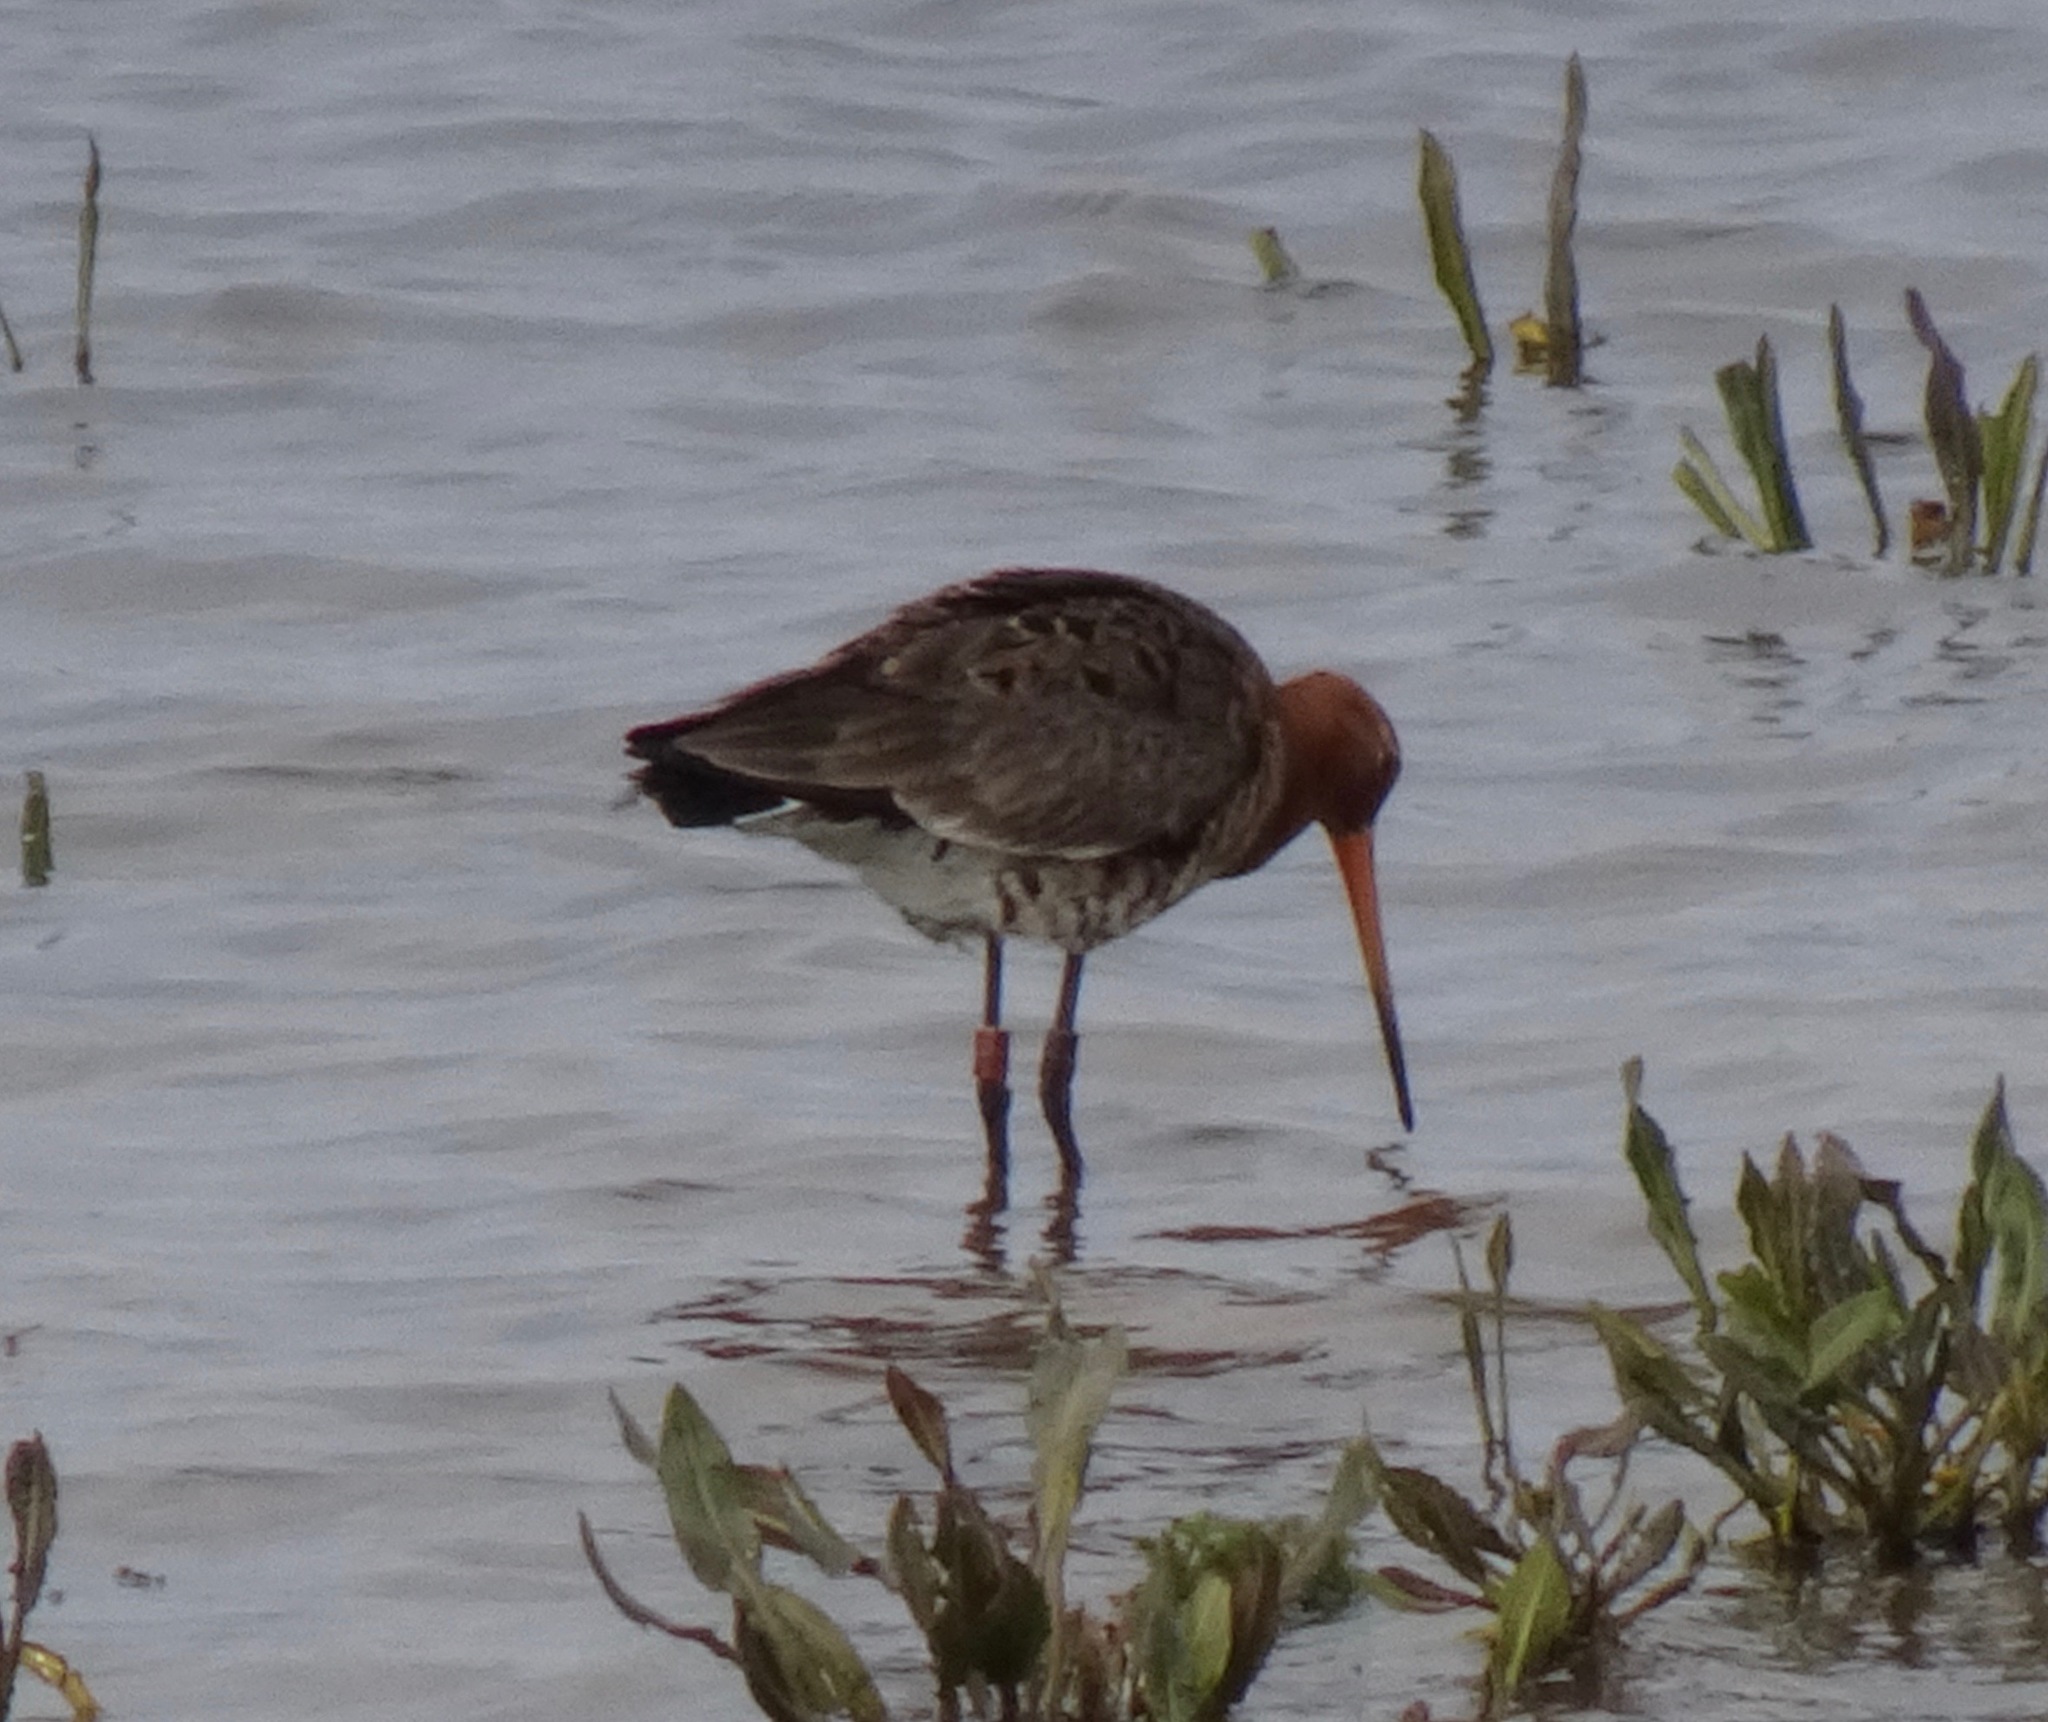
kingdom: Animalia
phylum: Chordata
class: Aves
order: Charadriiformes
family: Scolopacidae
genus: Limosa
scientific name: Limosa limosa
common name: Black-tailed godwit
